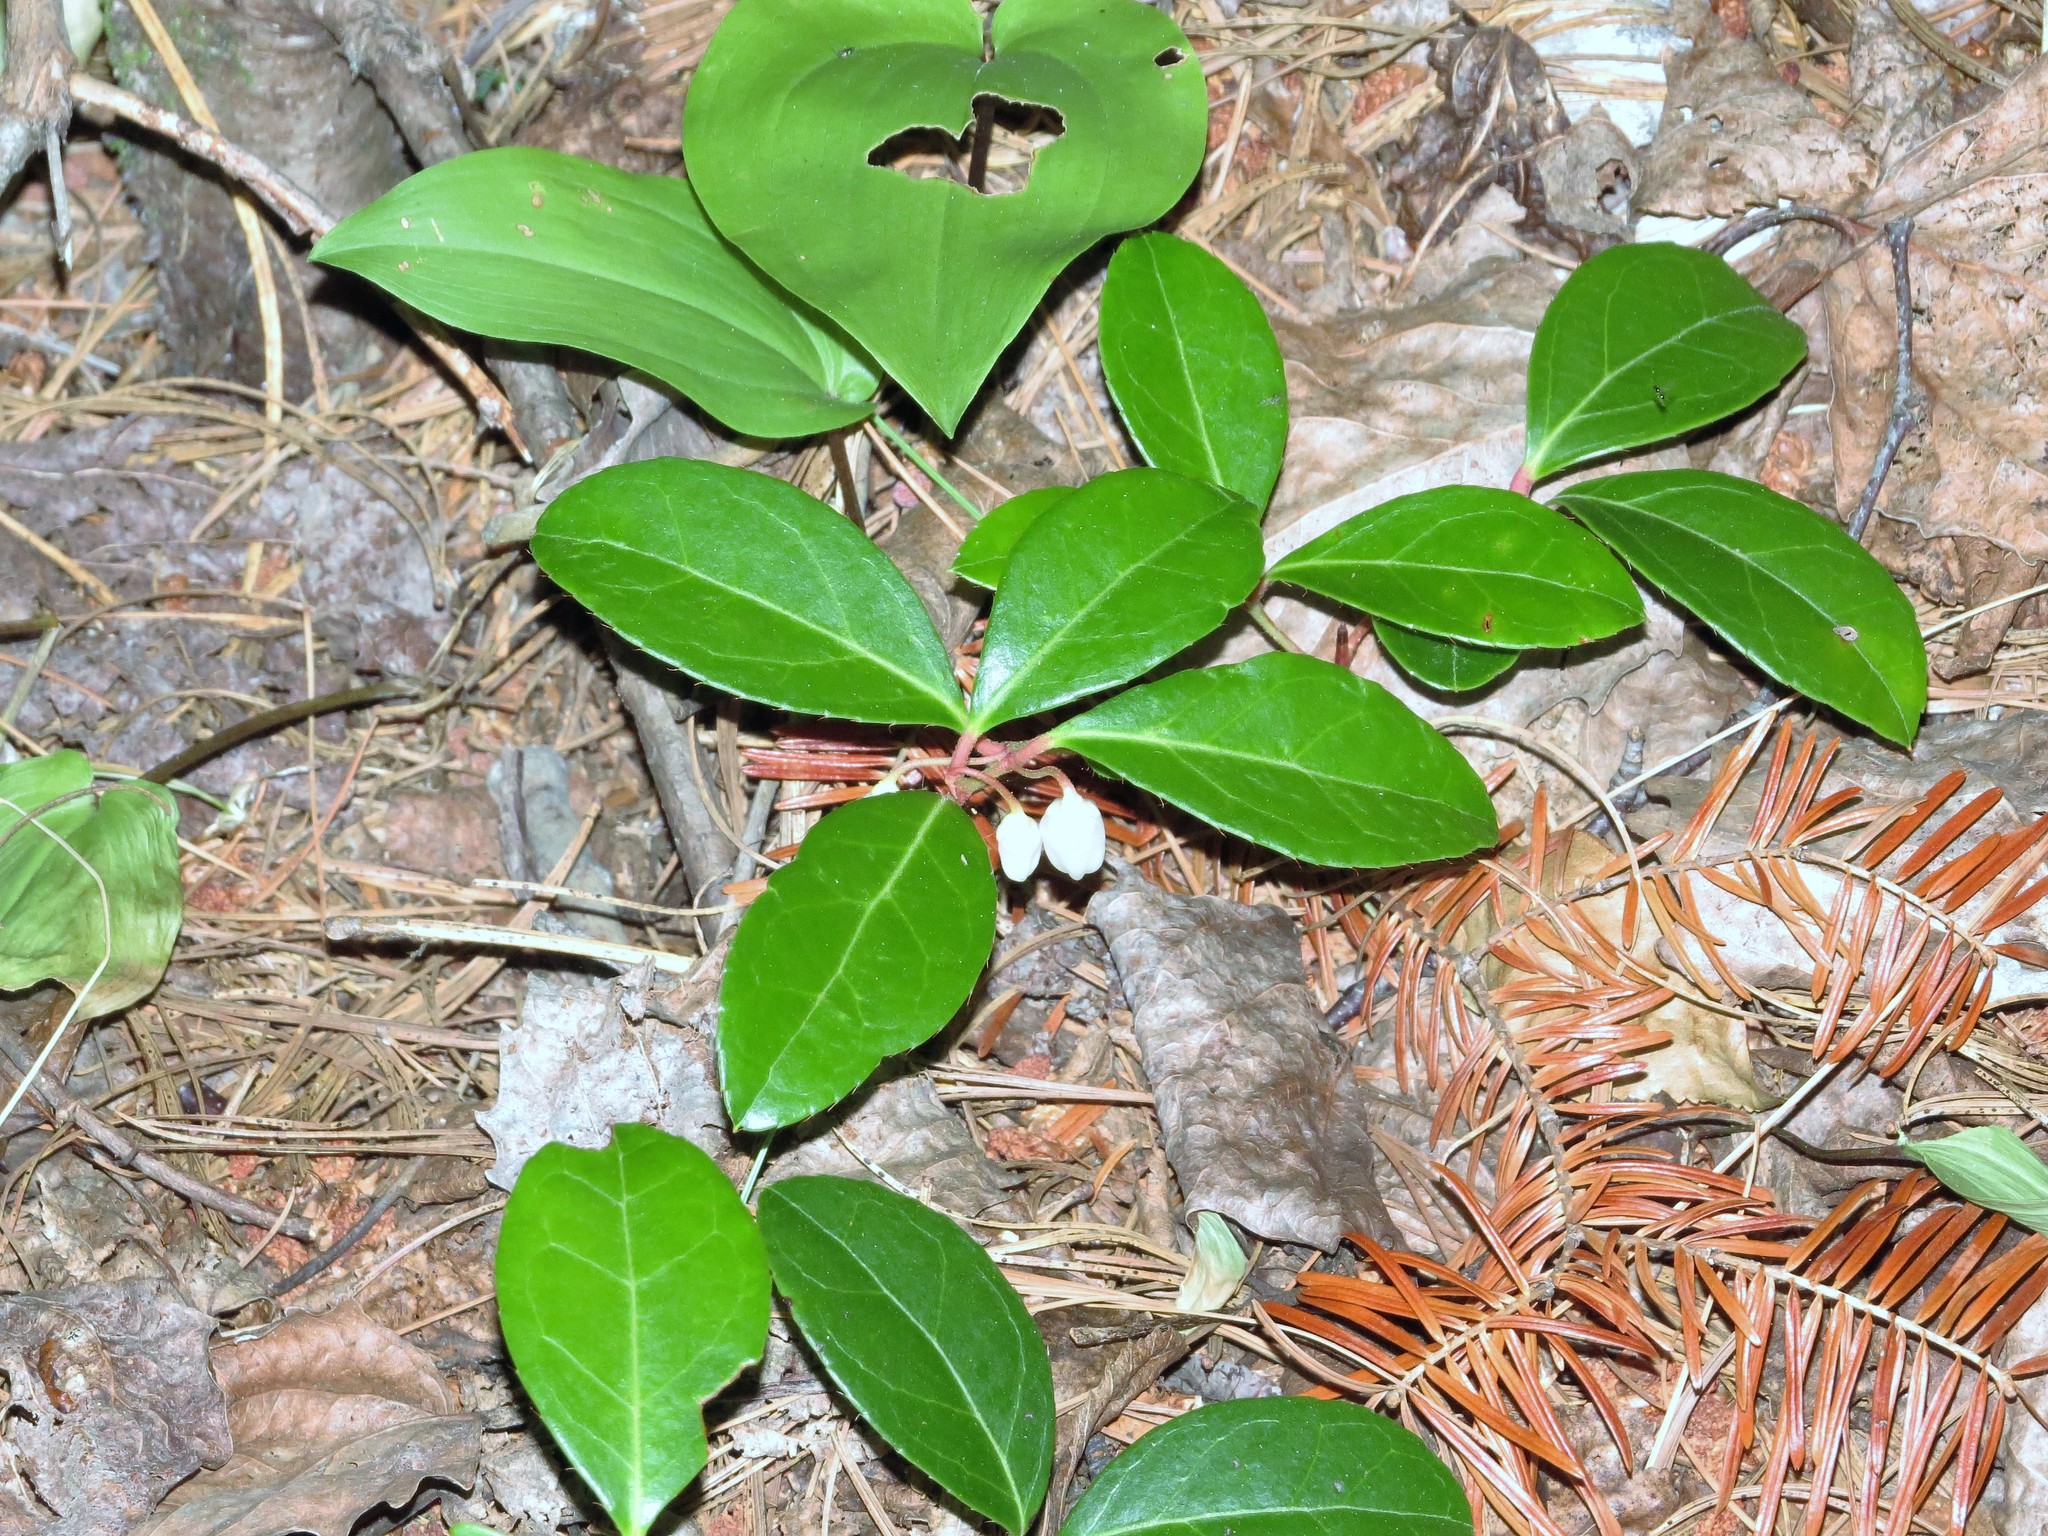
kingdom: Plantae
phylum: Tracheophyta
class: Magnoliopsida
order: Ericales
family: Ericaceae
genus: Gaultheria
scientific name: Gaultheria procumbens
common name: Checkerberry
